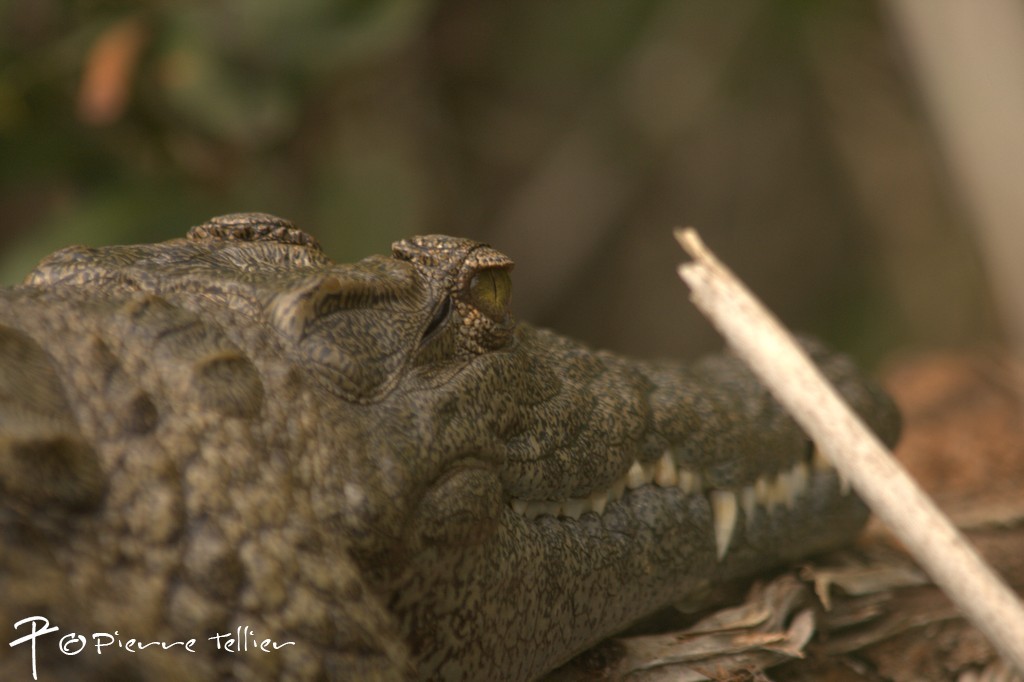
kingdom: Animalia
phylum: Chordata
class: Crocodylia
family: Crocodylidae
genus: Crocodylus
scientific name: Crocodylus niloticus
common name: Nile crocodile
